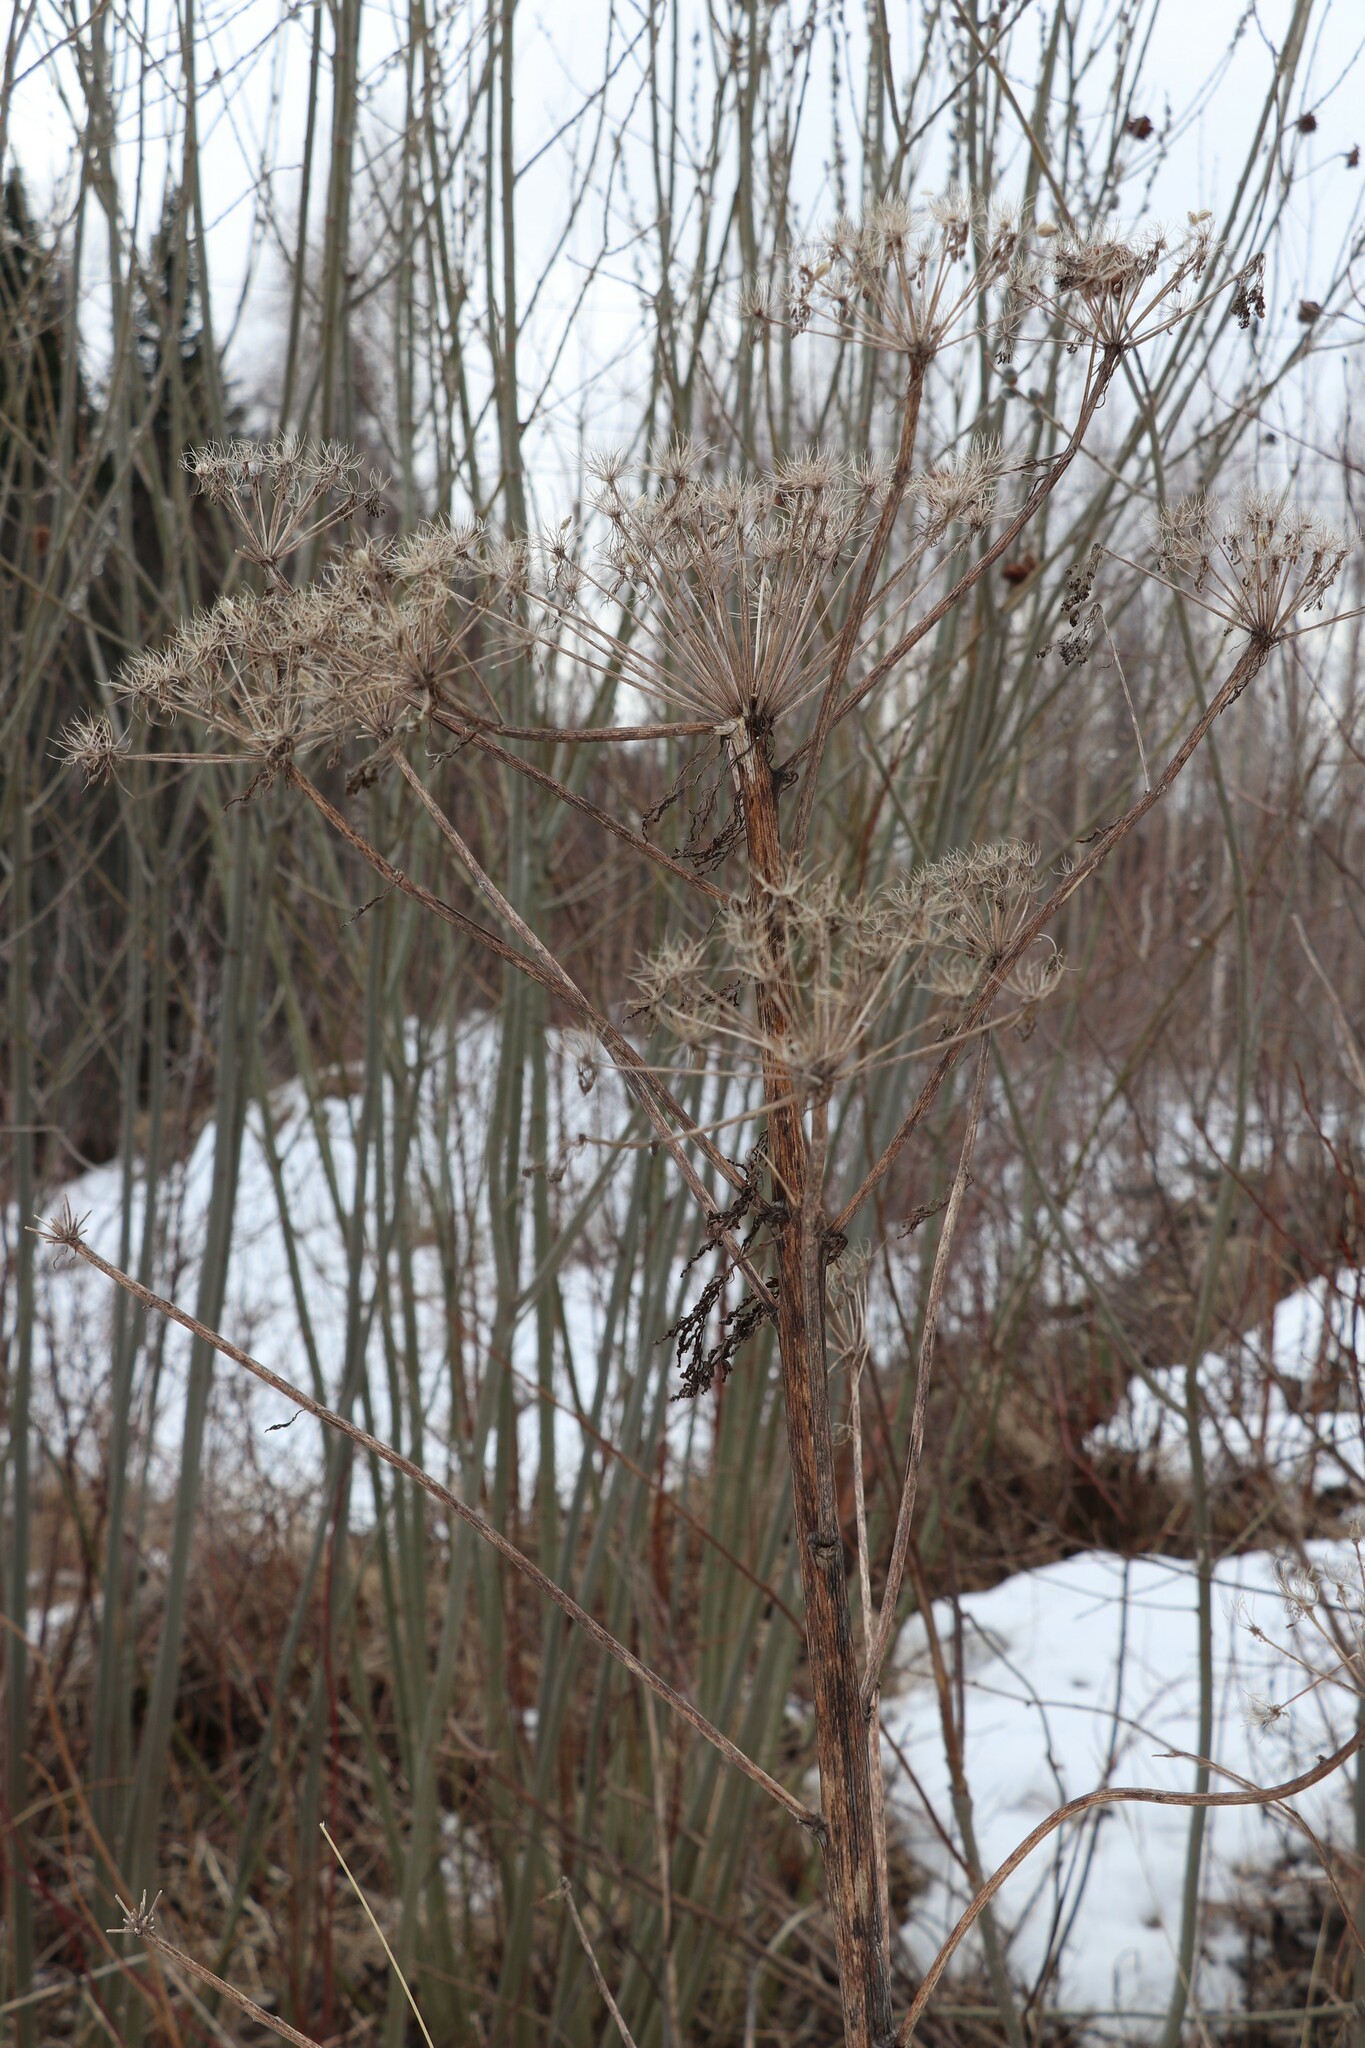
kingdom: Plantae
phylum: Tracheophyta
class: Magnoliopsida
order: Apiales
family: Apiaceae
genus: Pleurospermum
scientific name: Pleurospermum uralense
